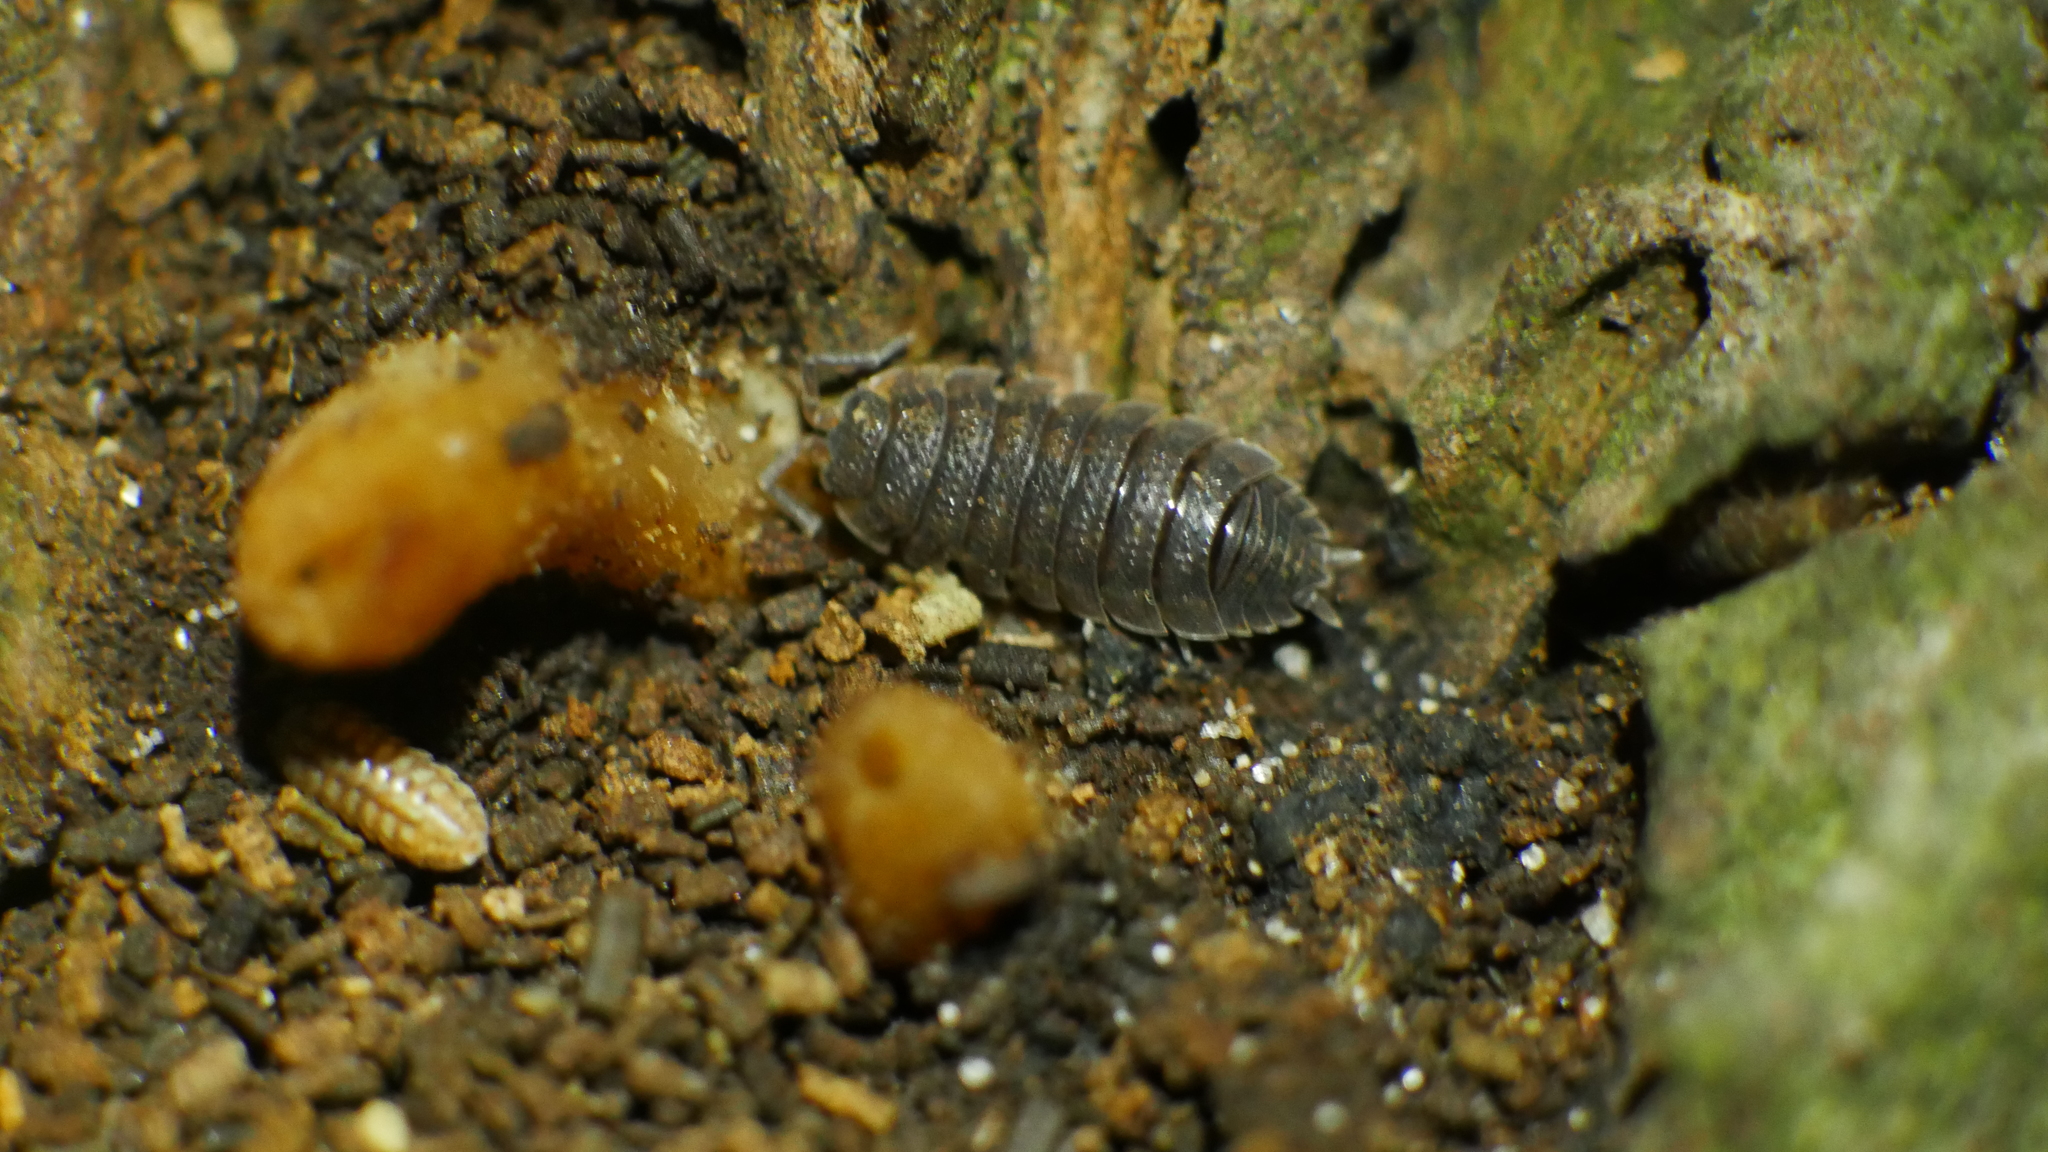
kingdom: Animalia
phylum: Arthropoda
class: Malacostraca
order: Isopoda
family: Porcellionidae
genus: Porcellio
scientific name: Porcellio scaber
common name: Common rough woodlouse
